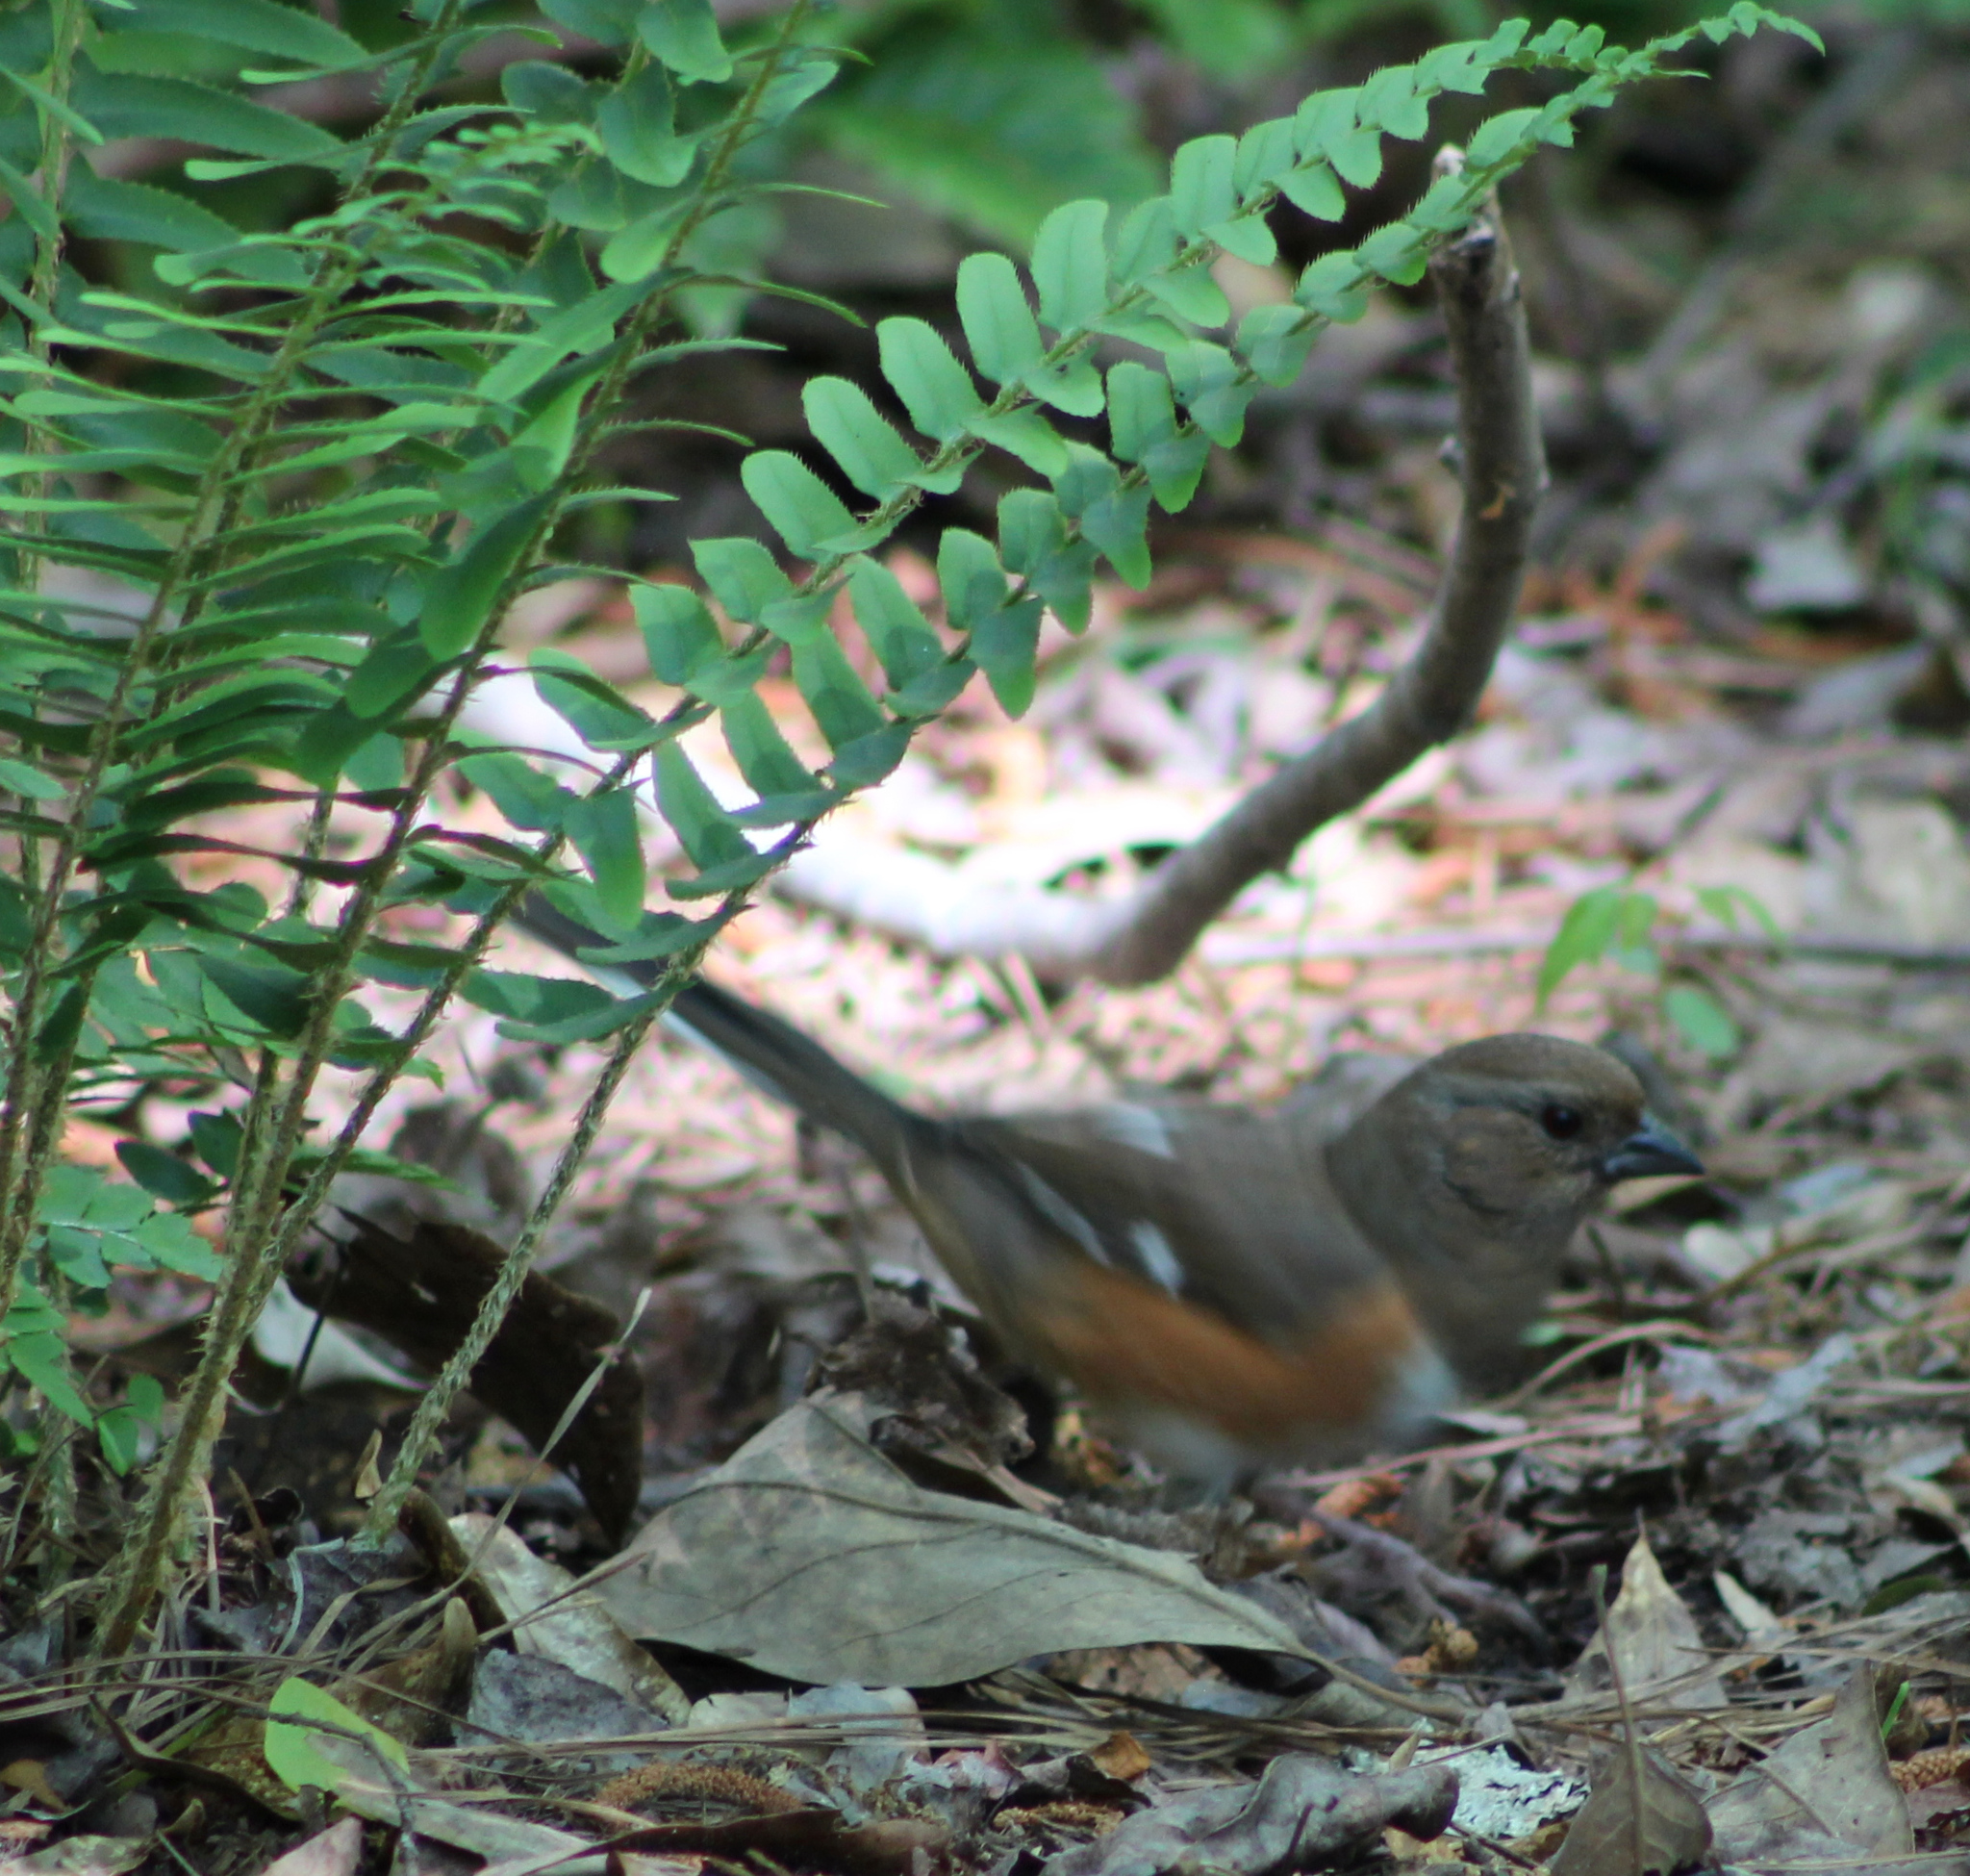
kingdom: Animalia
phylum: Chordata
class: Aves
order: Passeriformes
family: Passerellidae
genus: Pipilo
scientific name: Pipilo erythrophthalmus
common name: Eastern towhee
